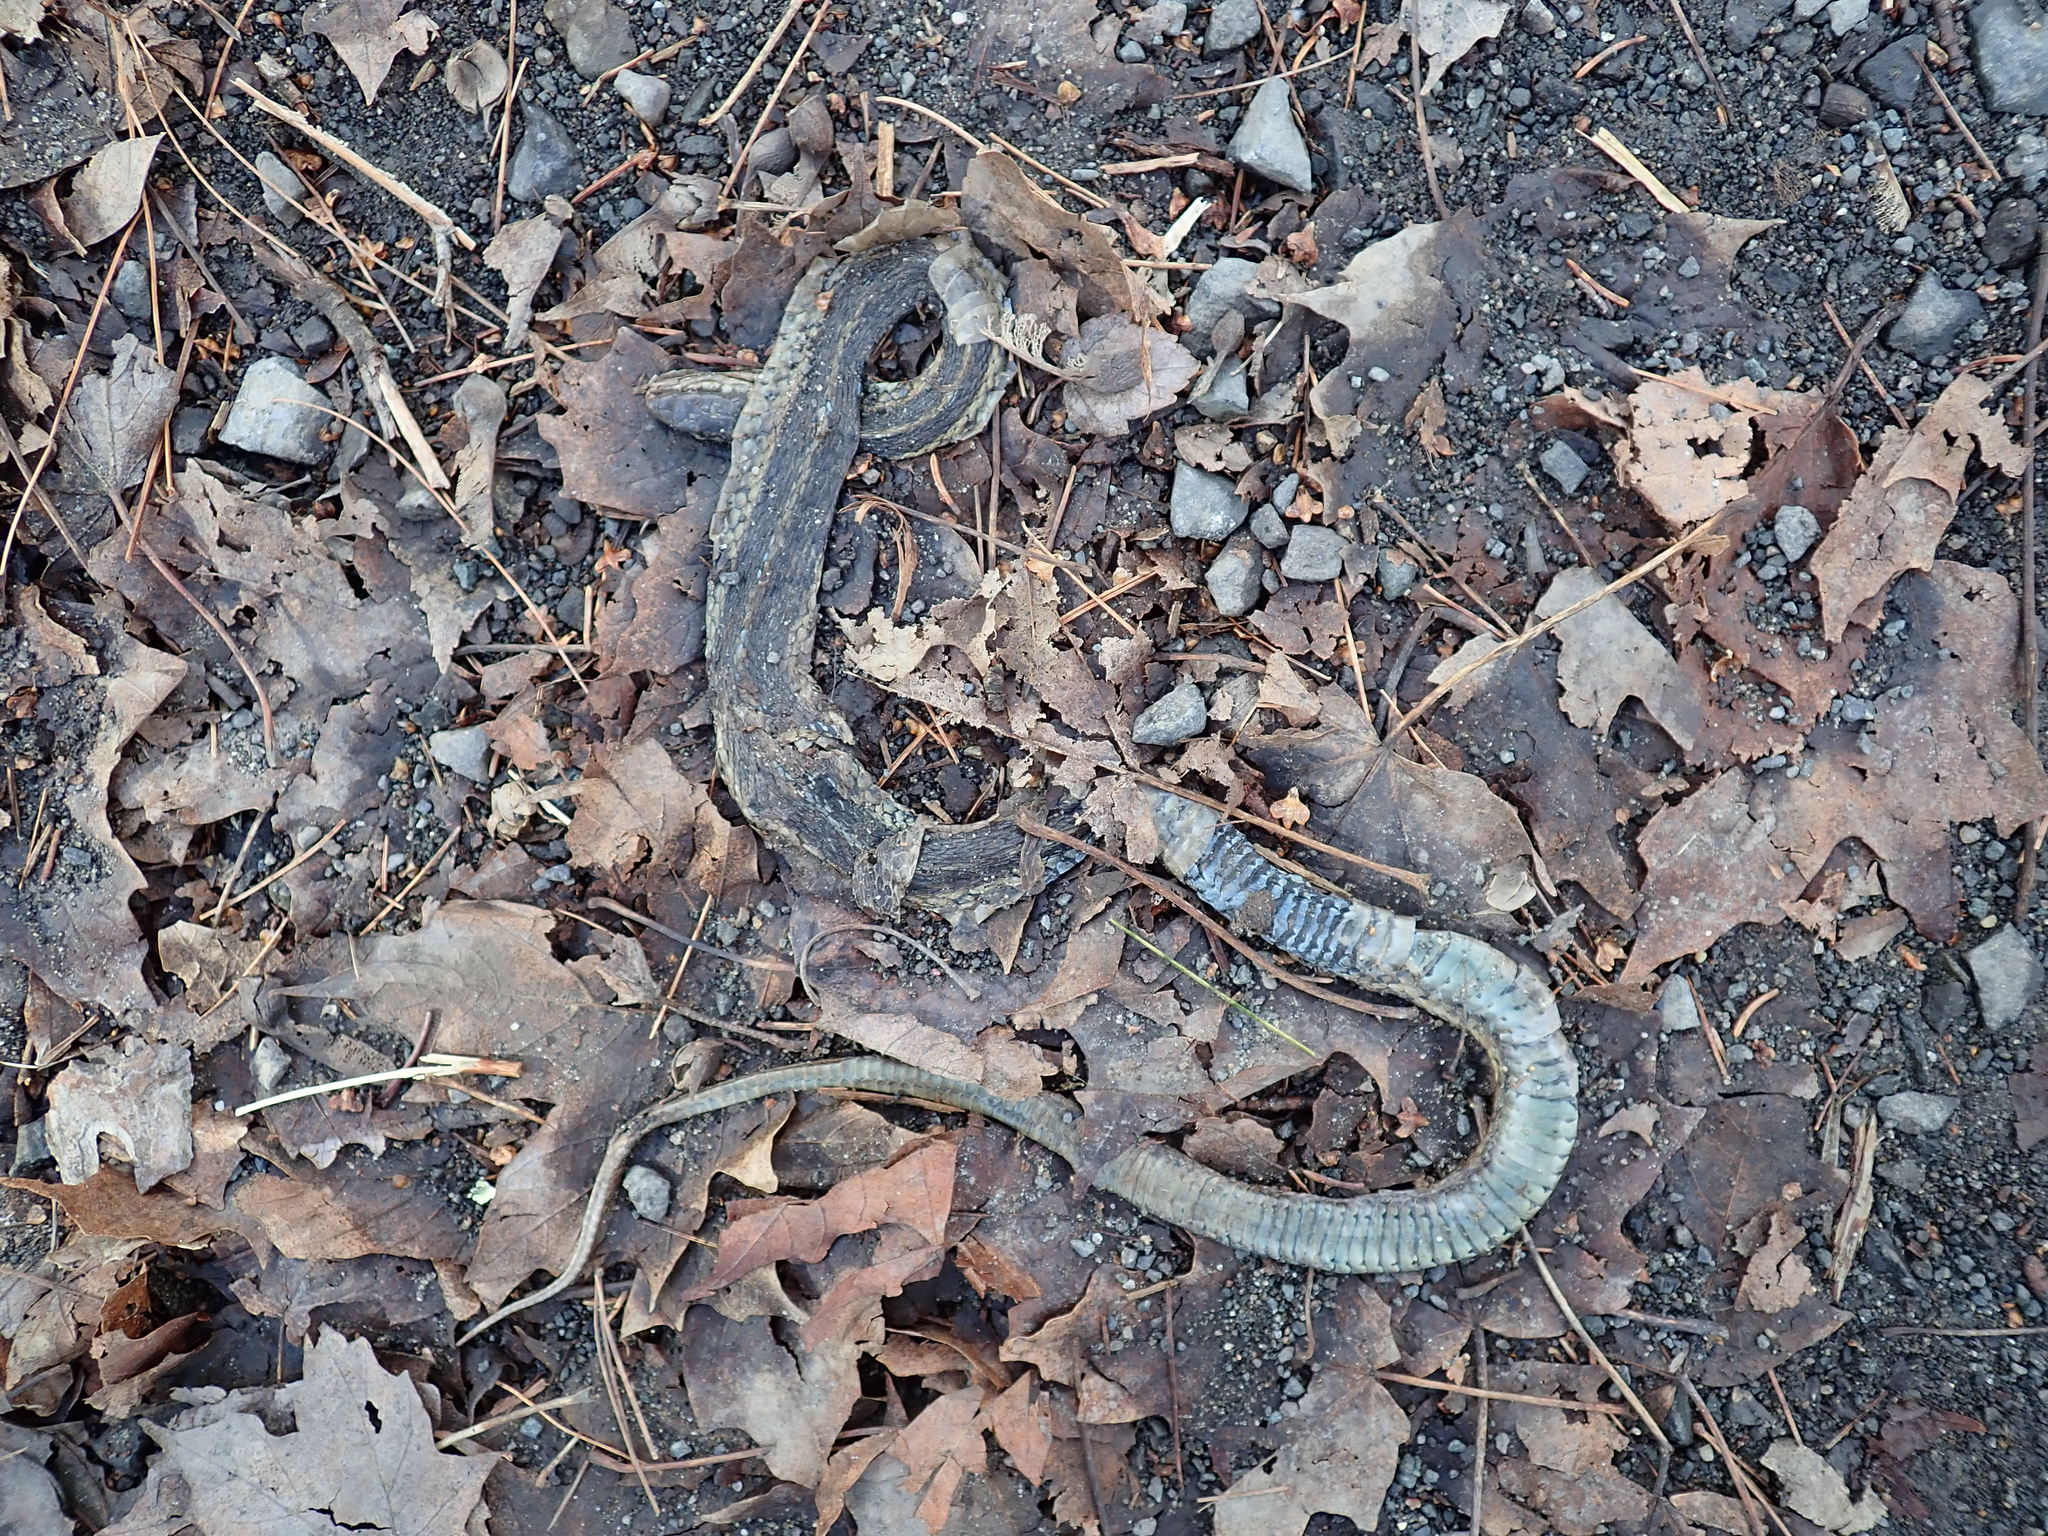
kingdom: Animalia
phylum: Chordata
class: Squamata
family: Colubridae
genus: Thamnophis
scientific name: Thamnophis sirtalis
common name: Common garter snake
